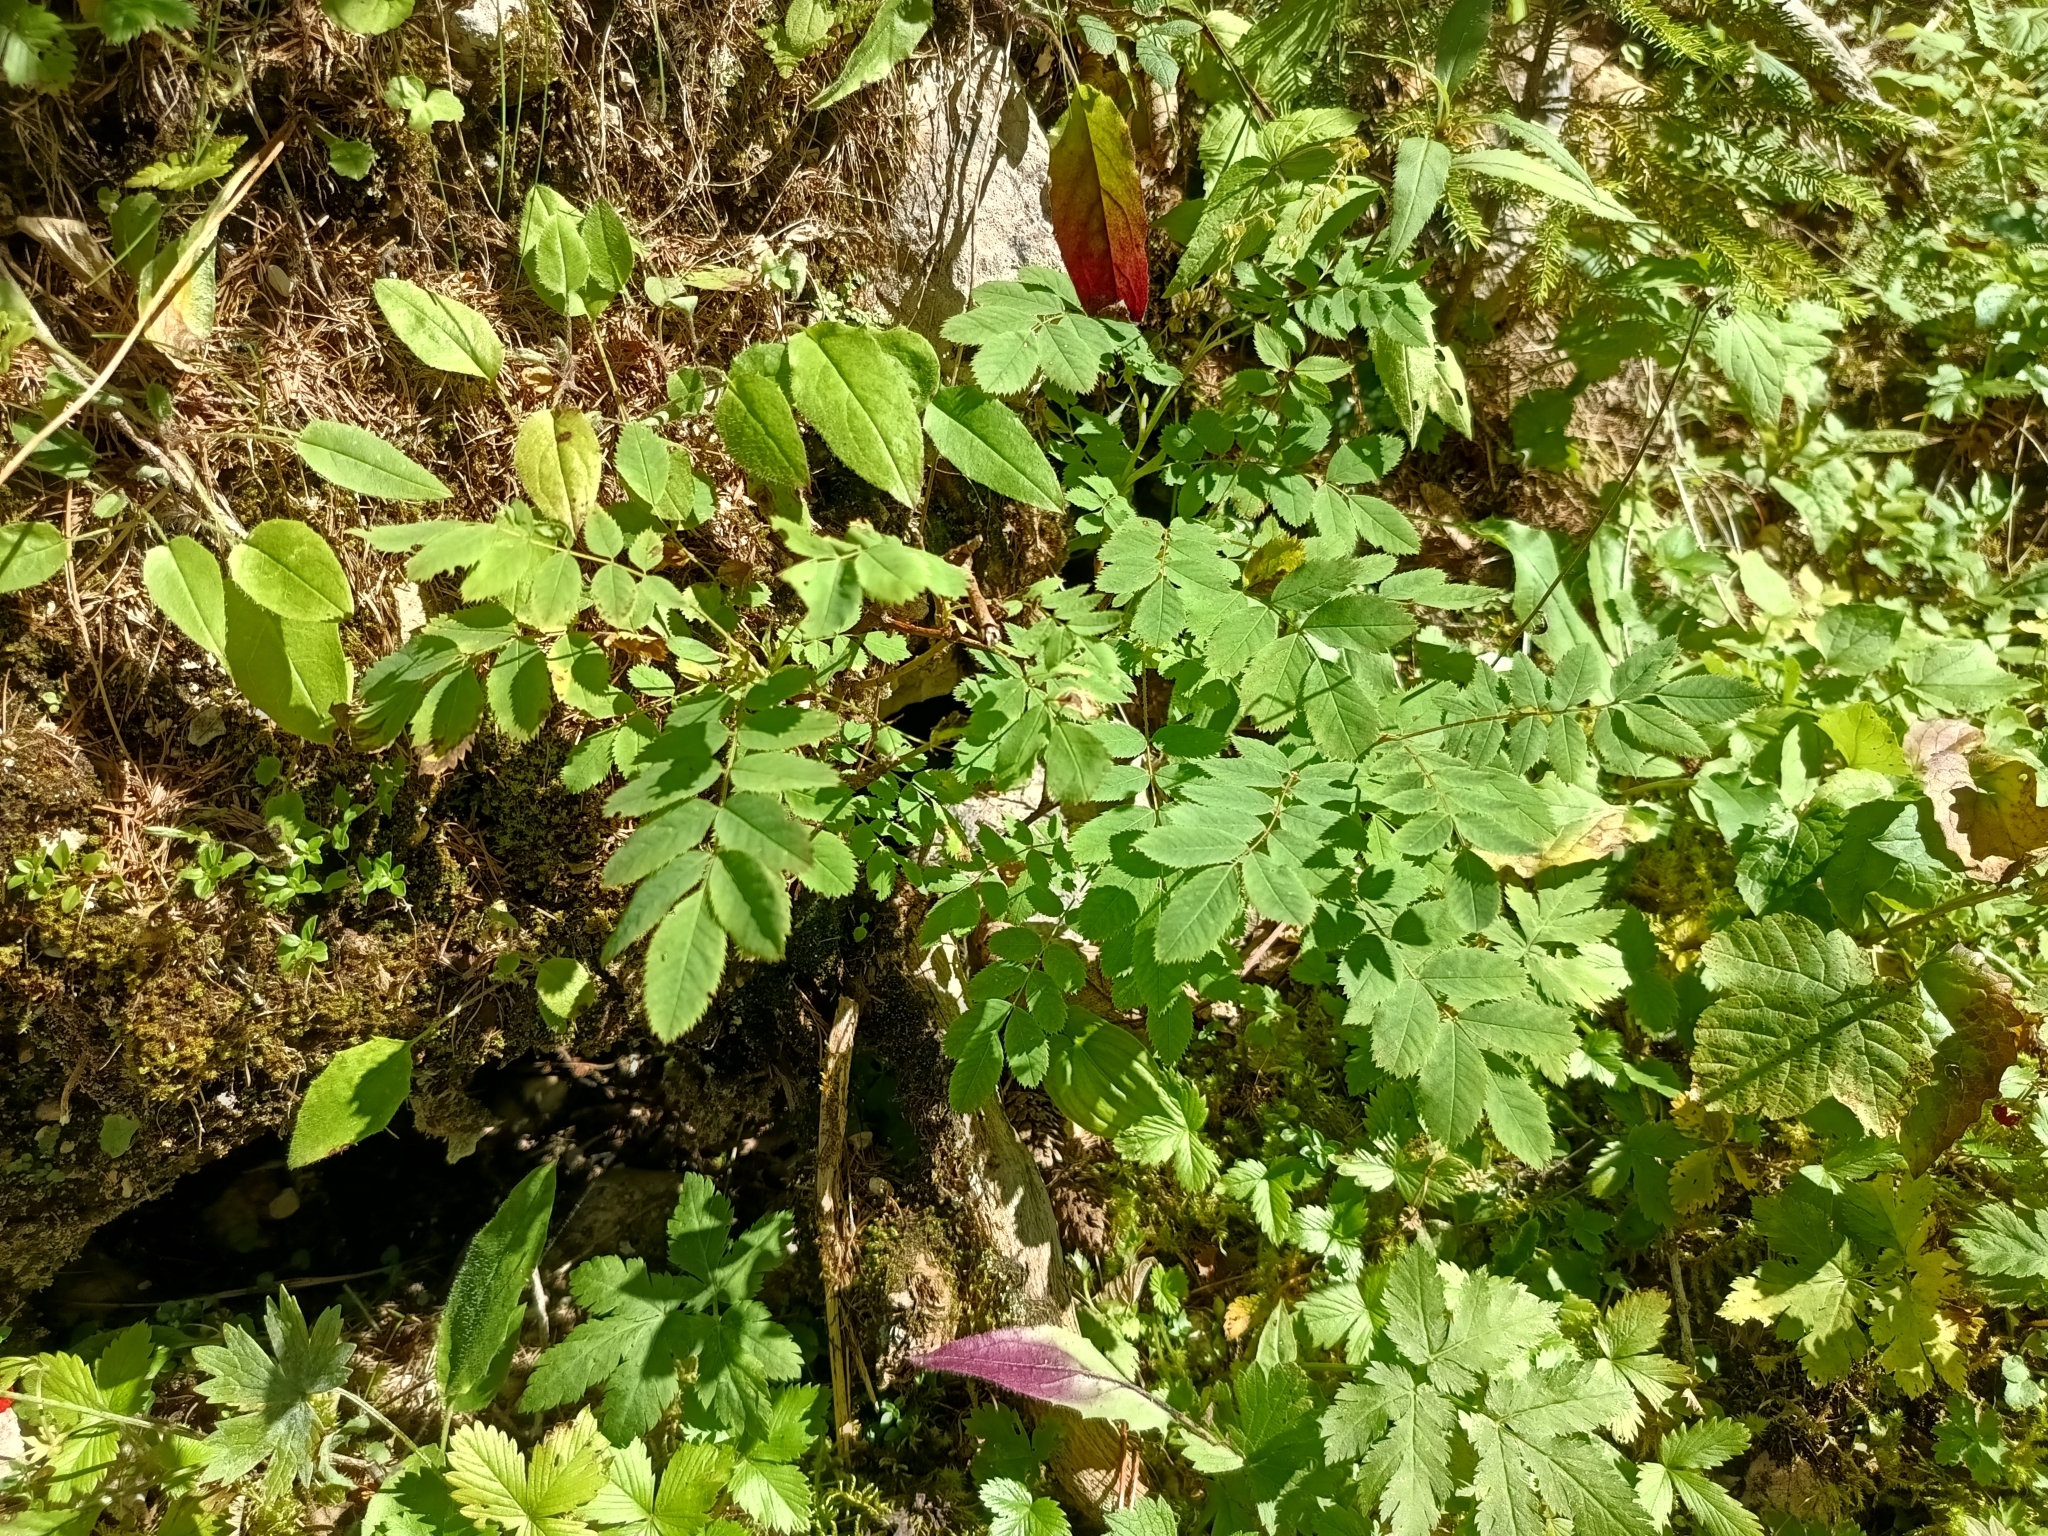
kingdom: Plantae
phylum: Tracheophyta
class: Magnoliopsida
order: Rosales
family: Rosaceae
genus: Rosa
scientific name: Rosa pendulina
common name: Alpine rose
